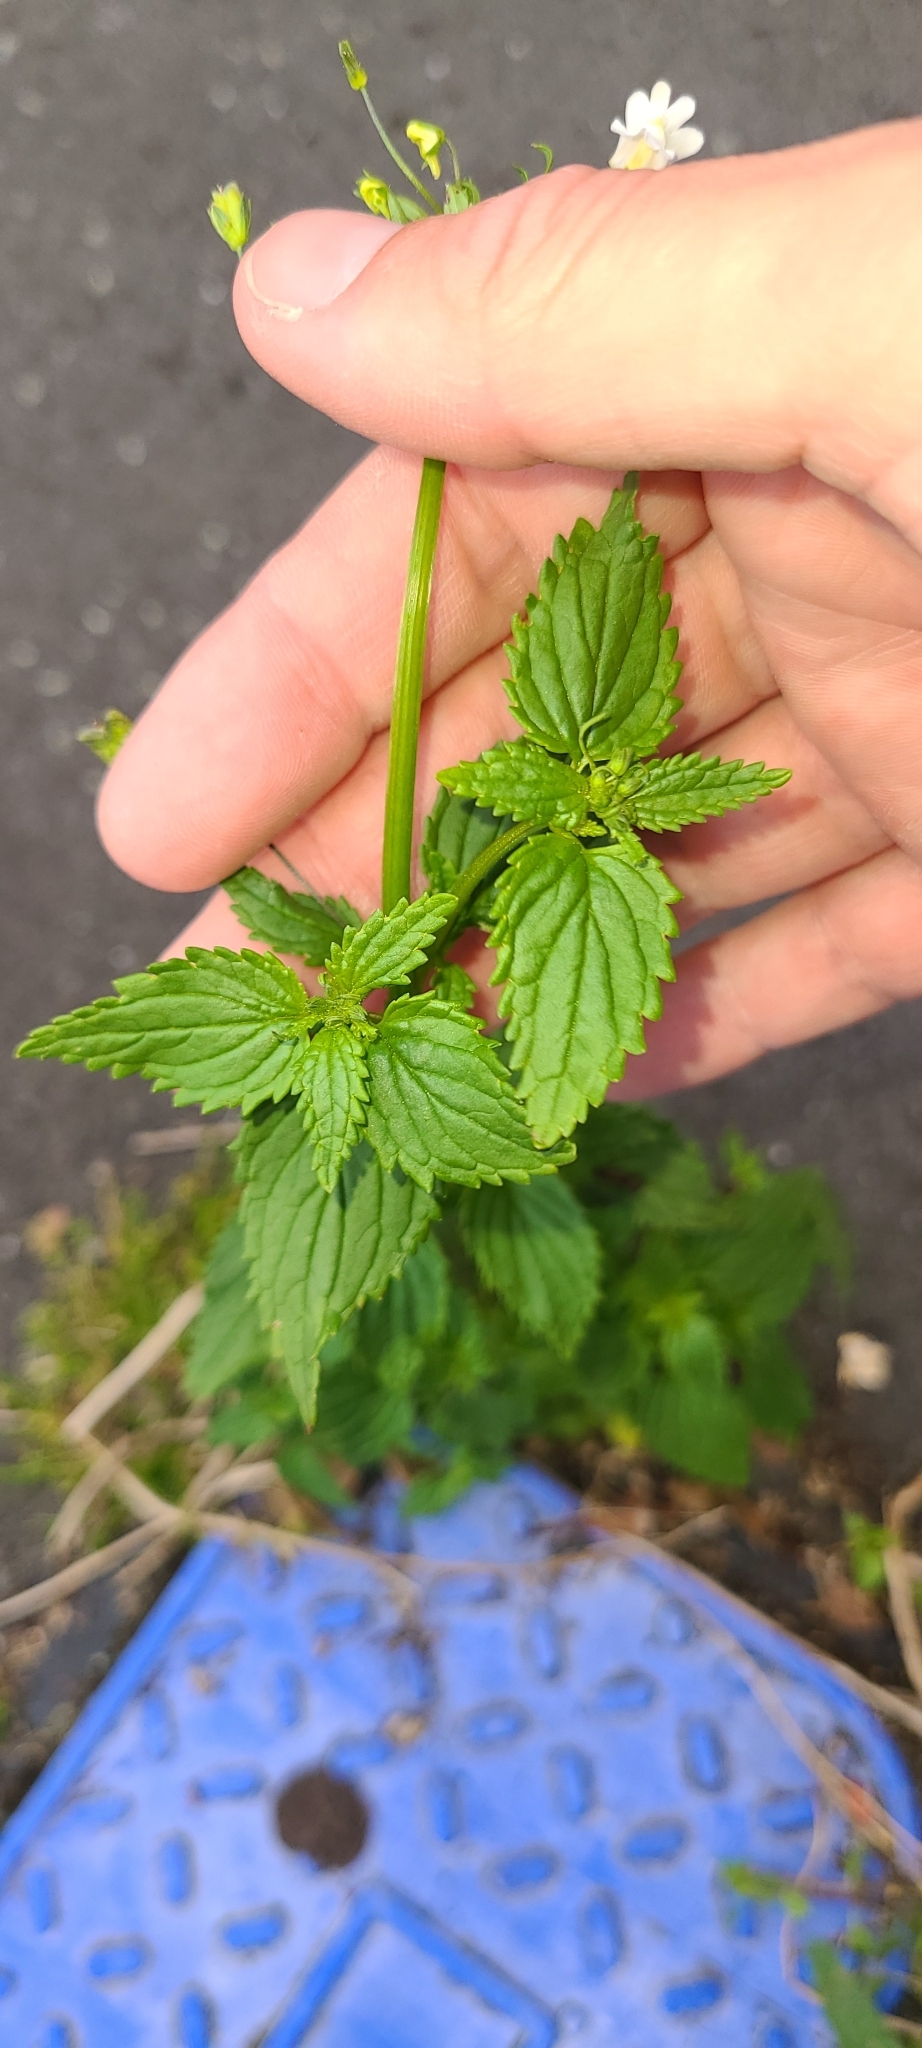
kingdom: Plantae
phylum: Tracheophyta
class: Magnoliopsida
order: Lamiales
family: Scrophulariaceae
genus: Nemesia
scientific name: Nemesia floribunda
